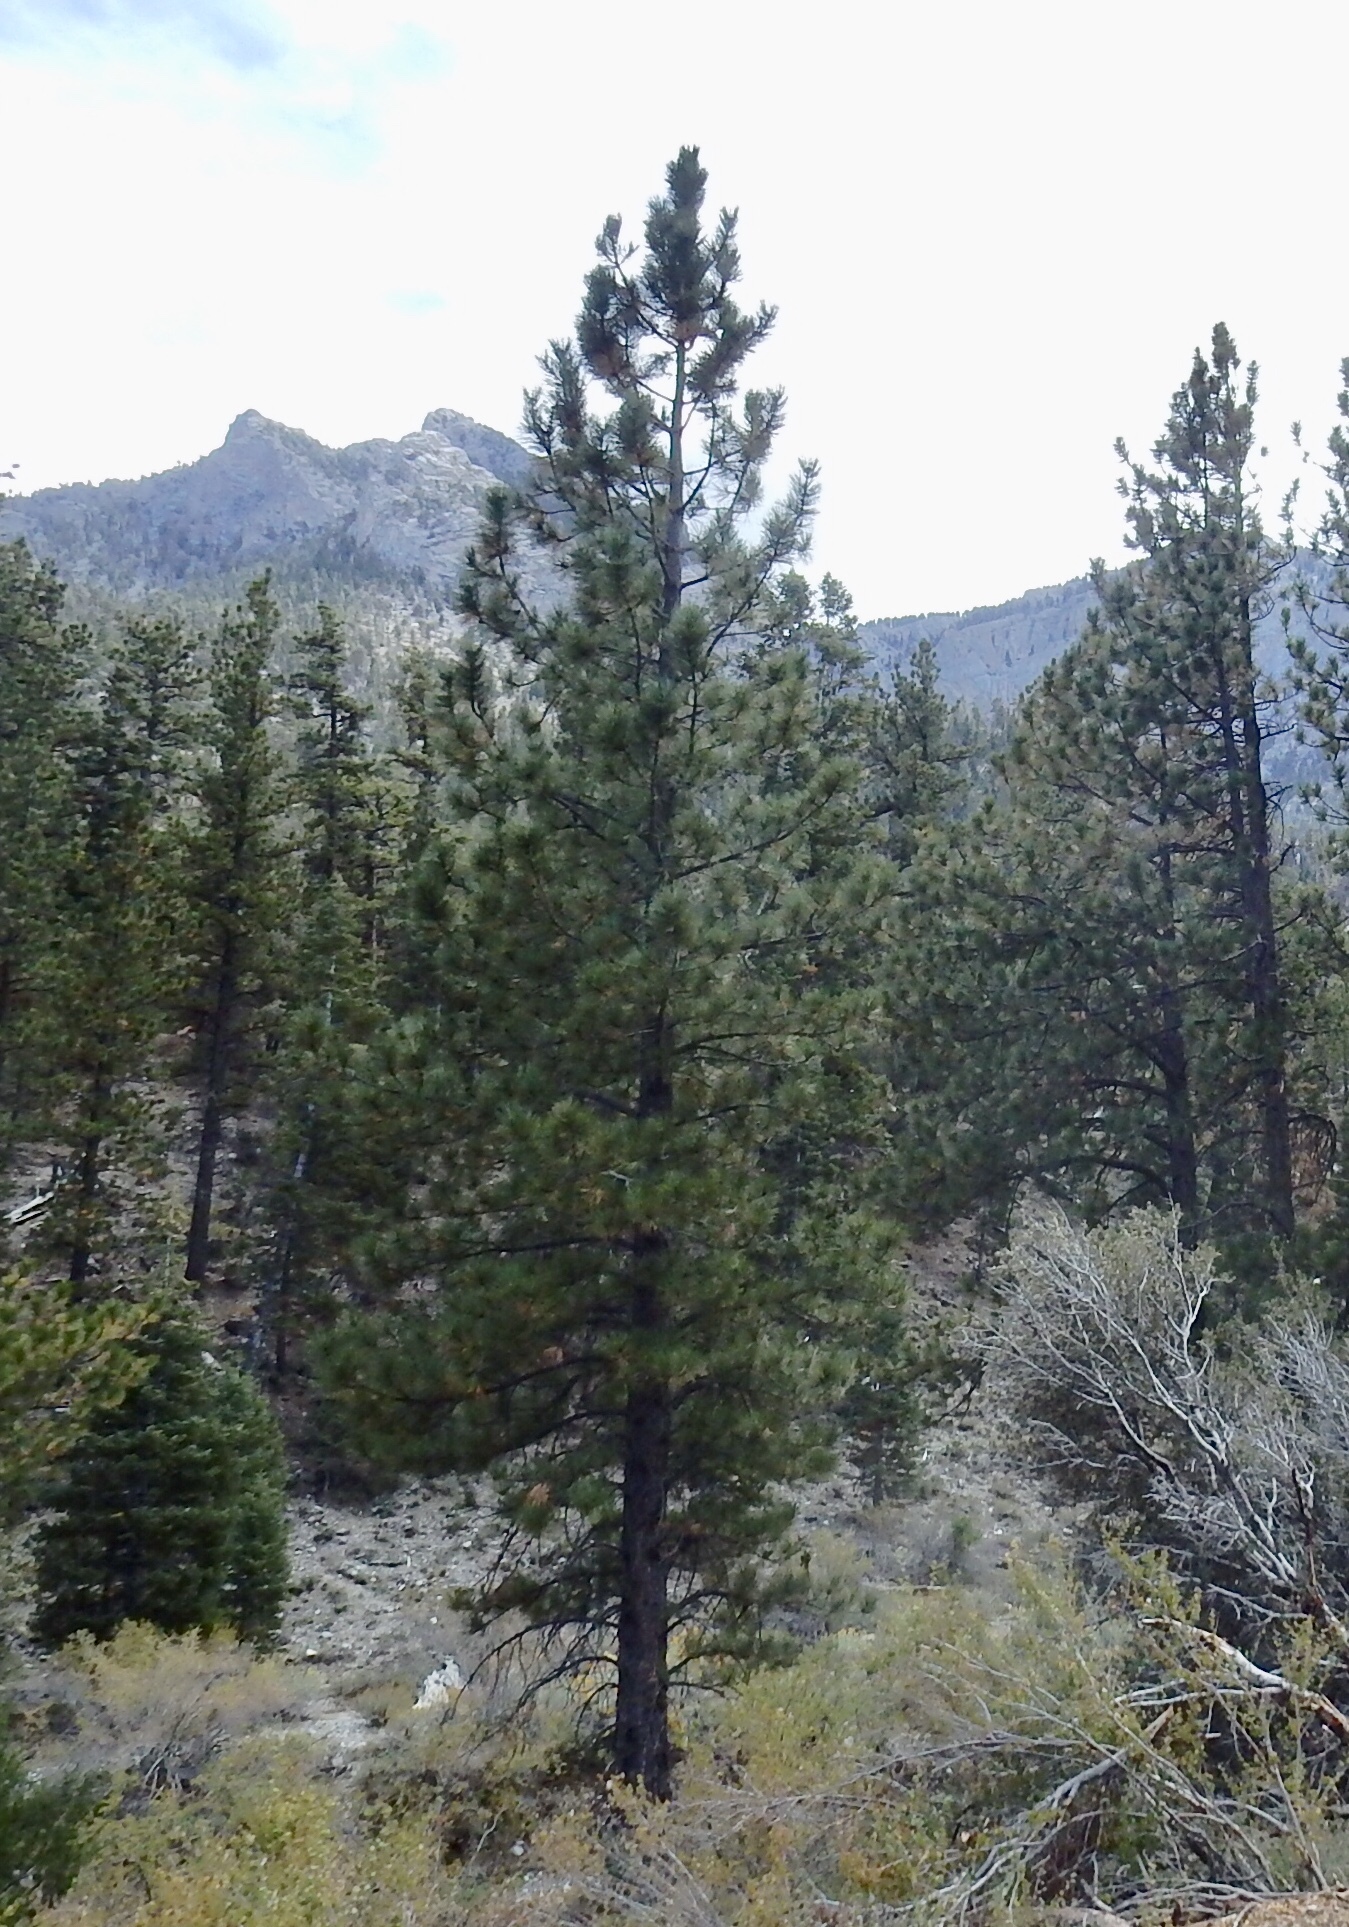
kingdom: Plantae
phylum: Tracheophyta
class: Pinopsida
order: Pinales
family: Pinaceae
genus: Pinus
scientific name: Pinus ponderosa
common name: Western yellow-pine
